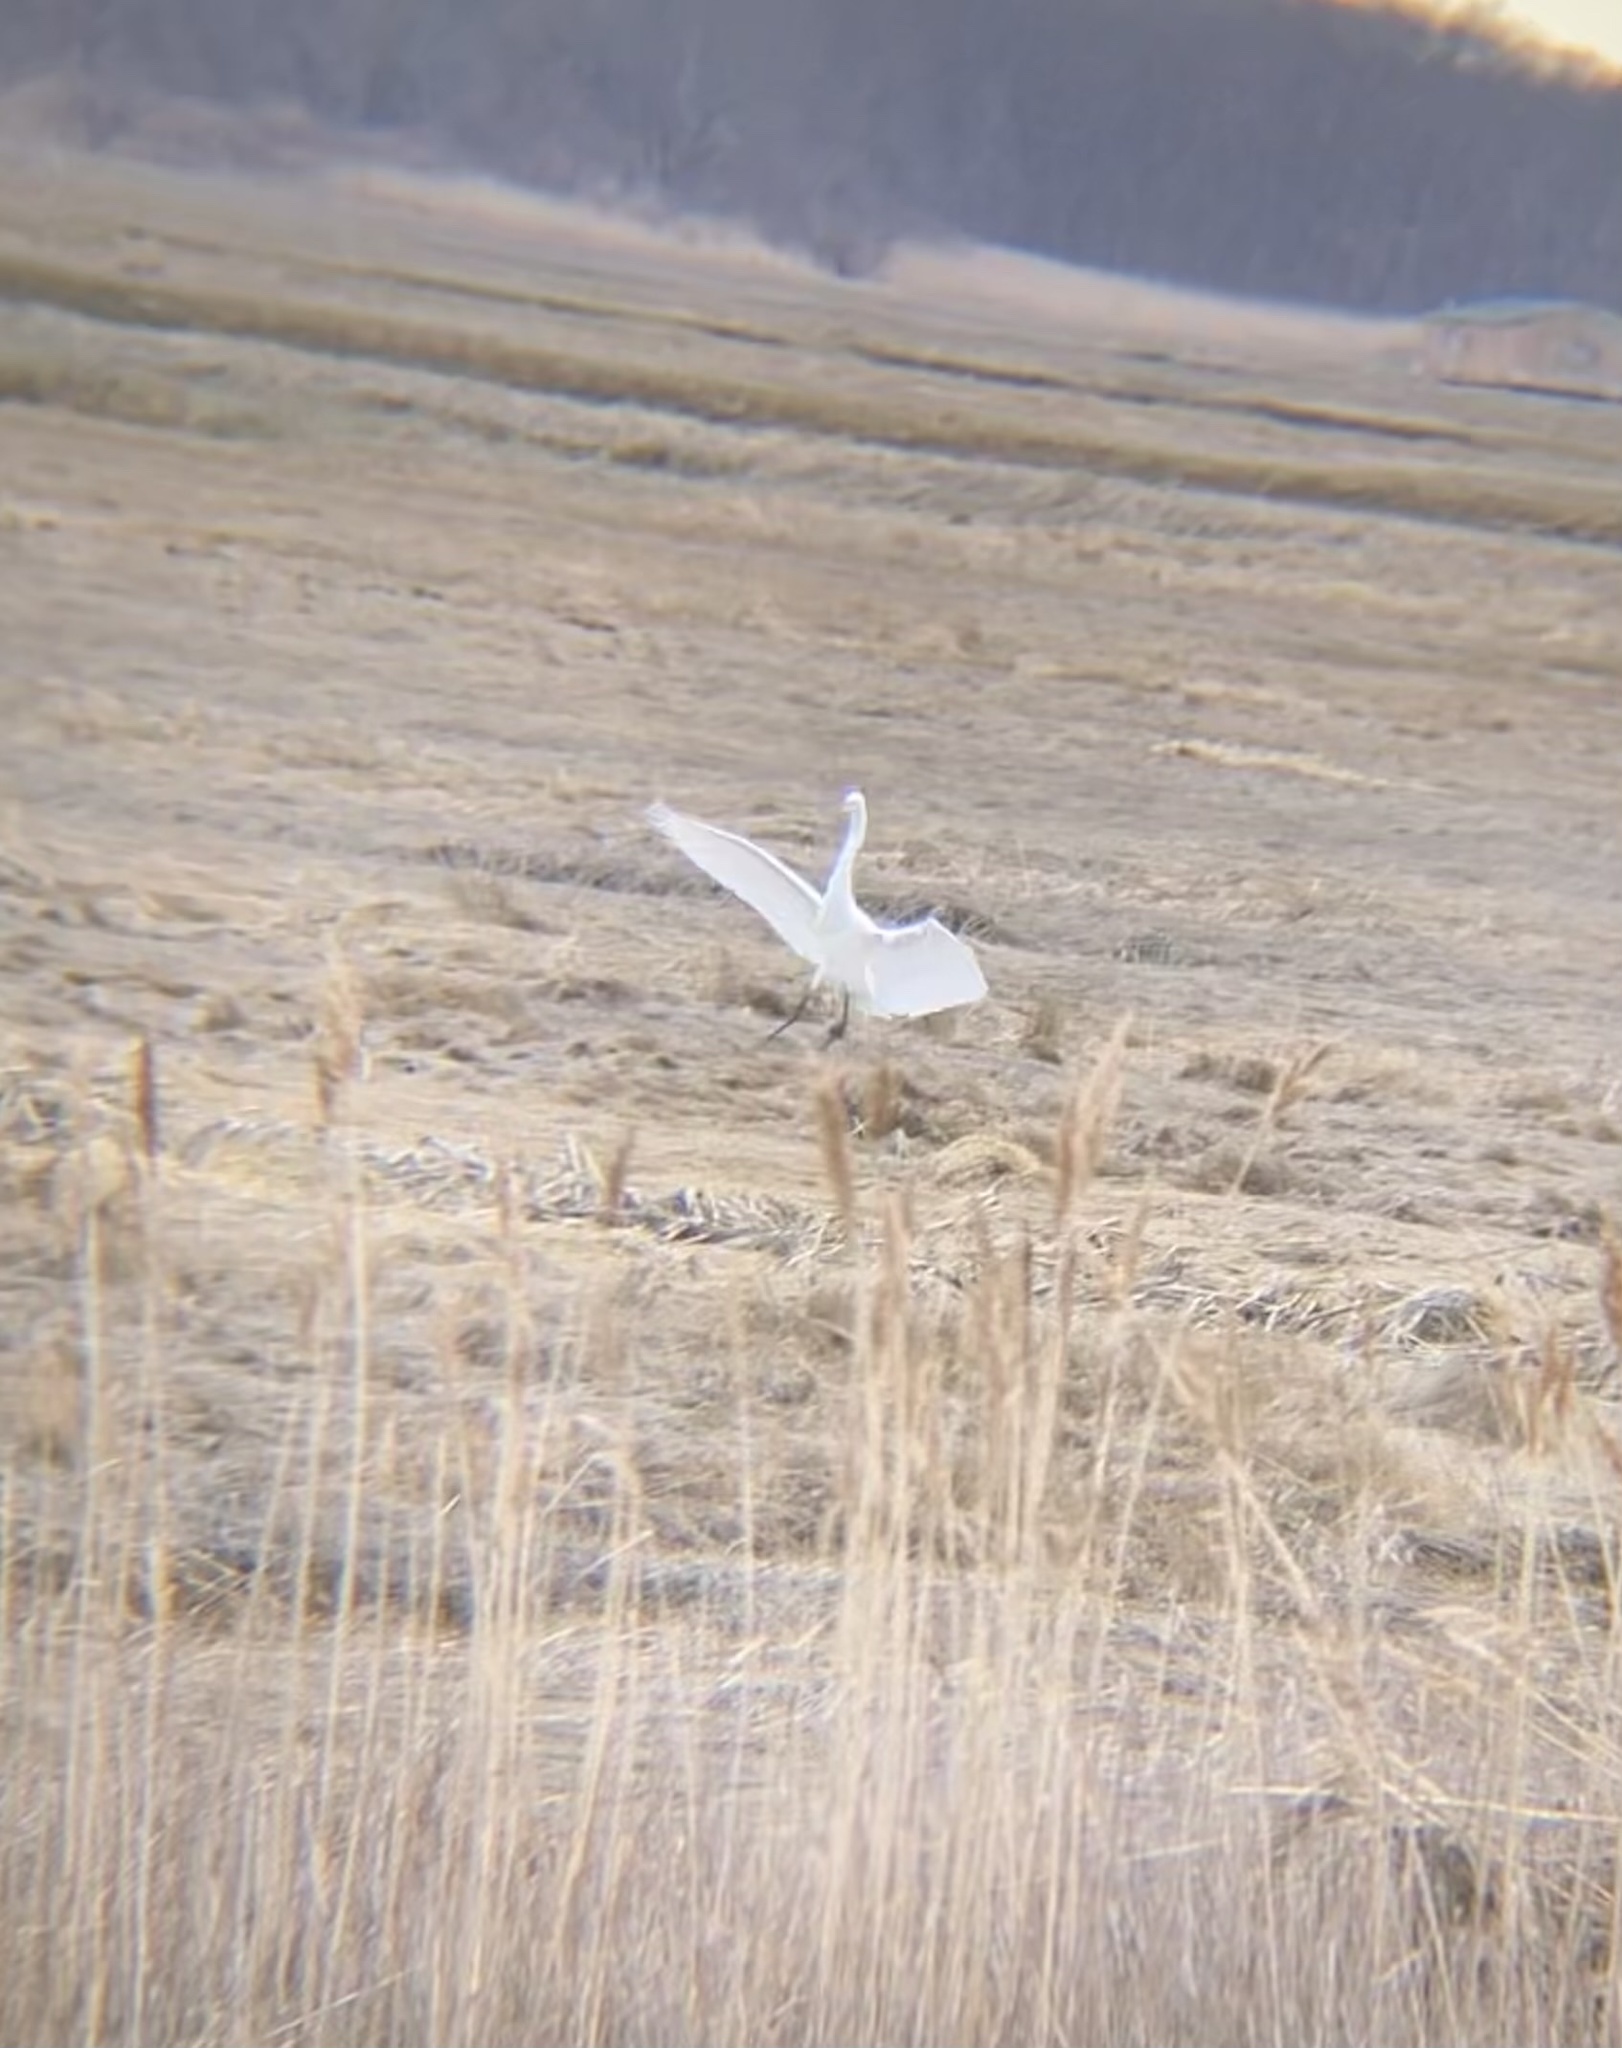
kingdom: Animalia
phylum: Chordata
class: Aves
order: Pelecaniformes
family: Ardeidae
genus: Ardea
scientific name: Ardea alba
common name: Great egret
